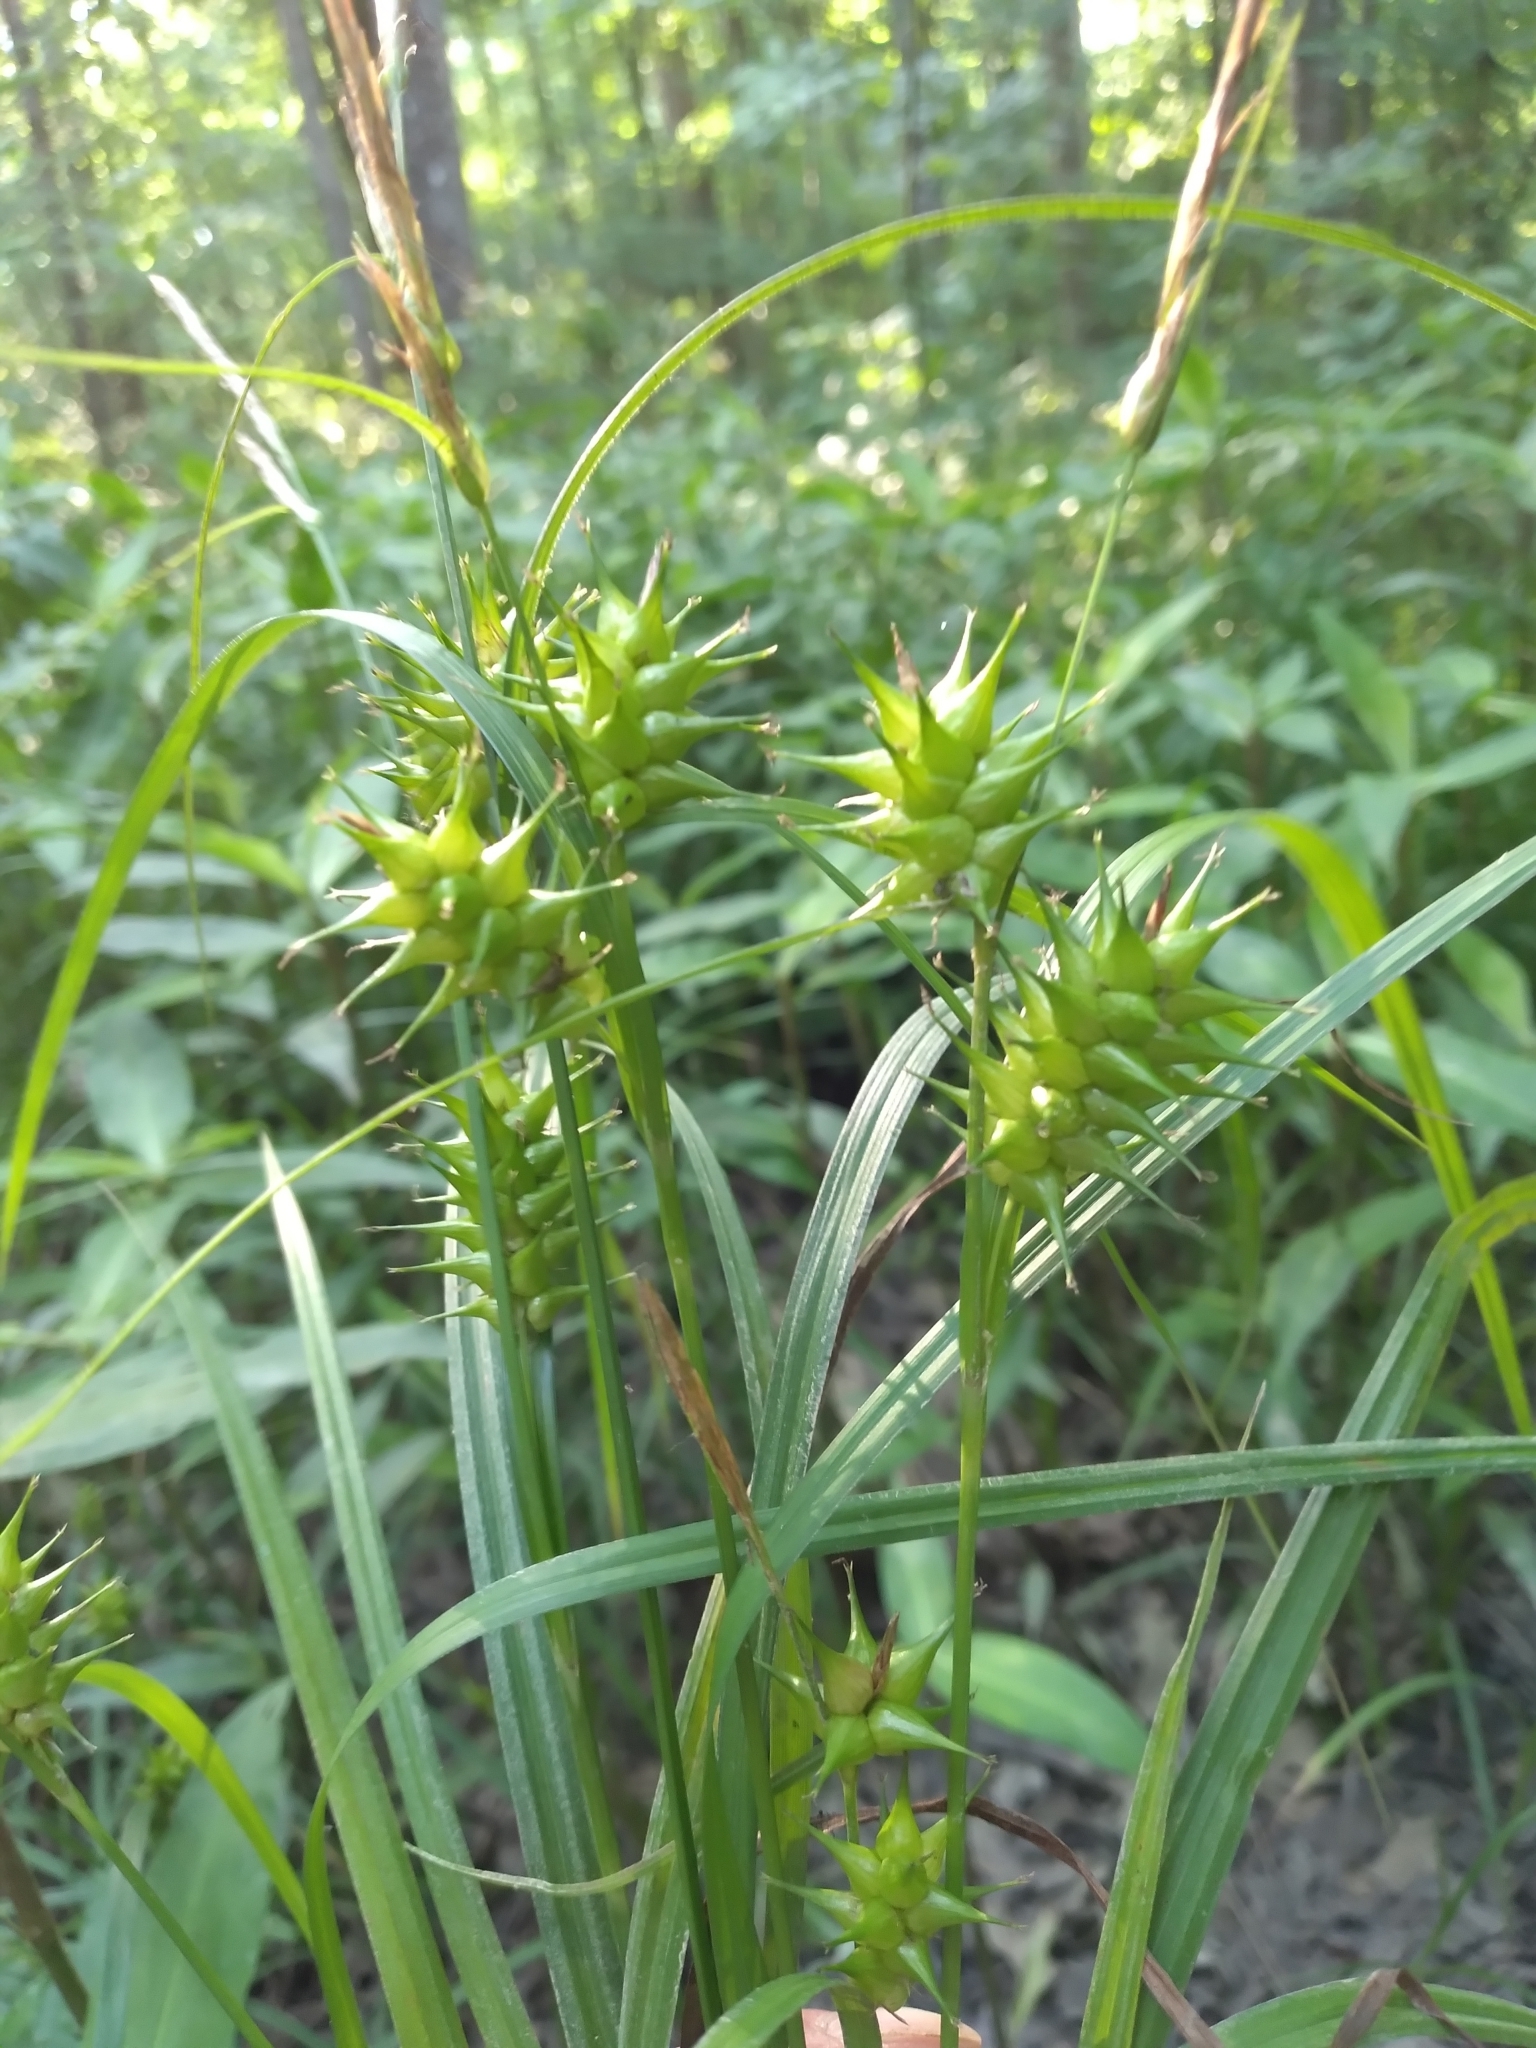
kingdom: Plantae
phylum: Tracheophyta
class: Liliopsida
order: Poales
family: Cyperaceae
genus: Carex
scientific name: Carex gigantea
